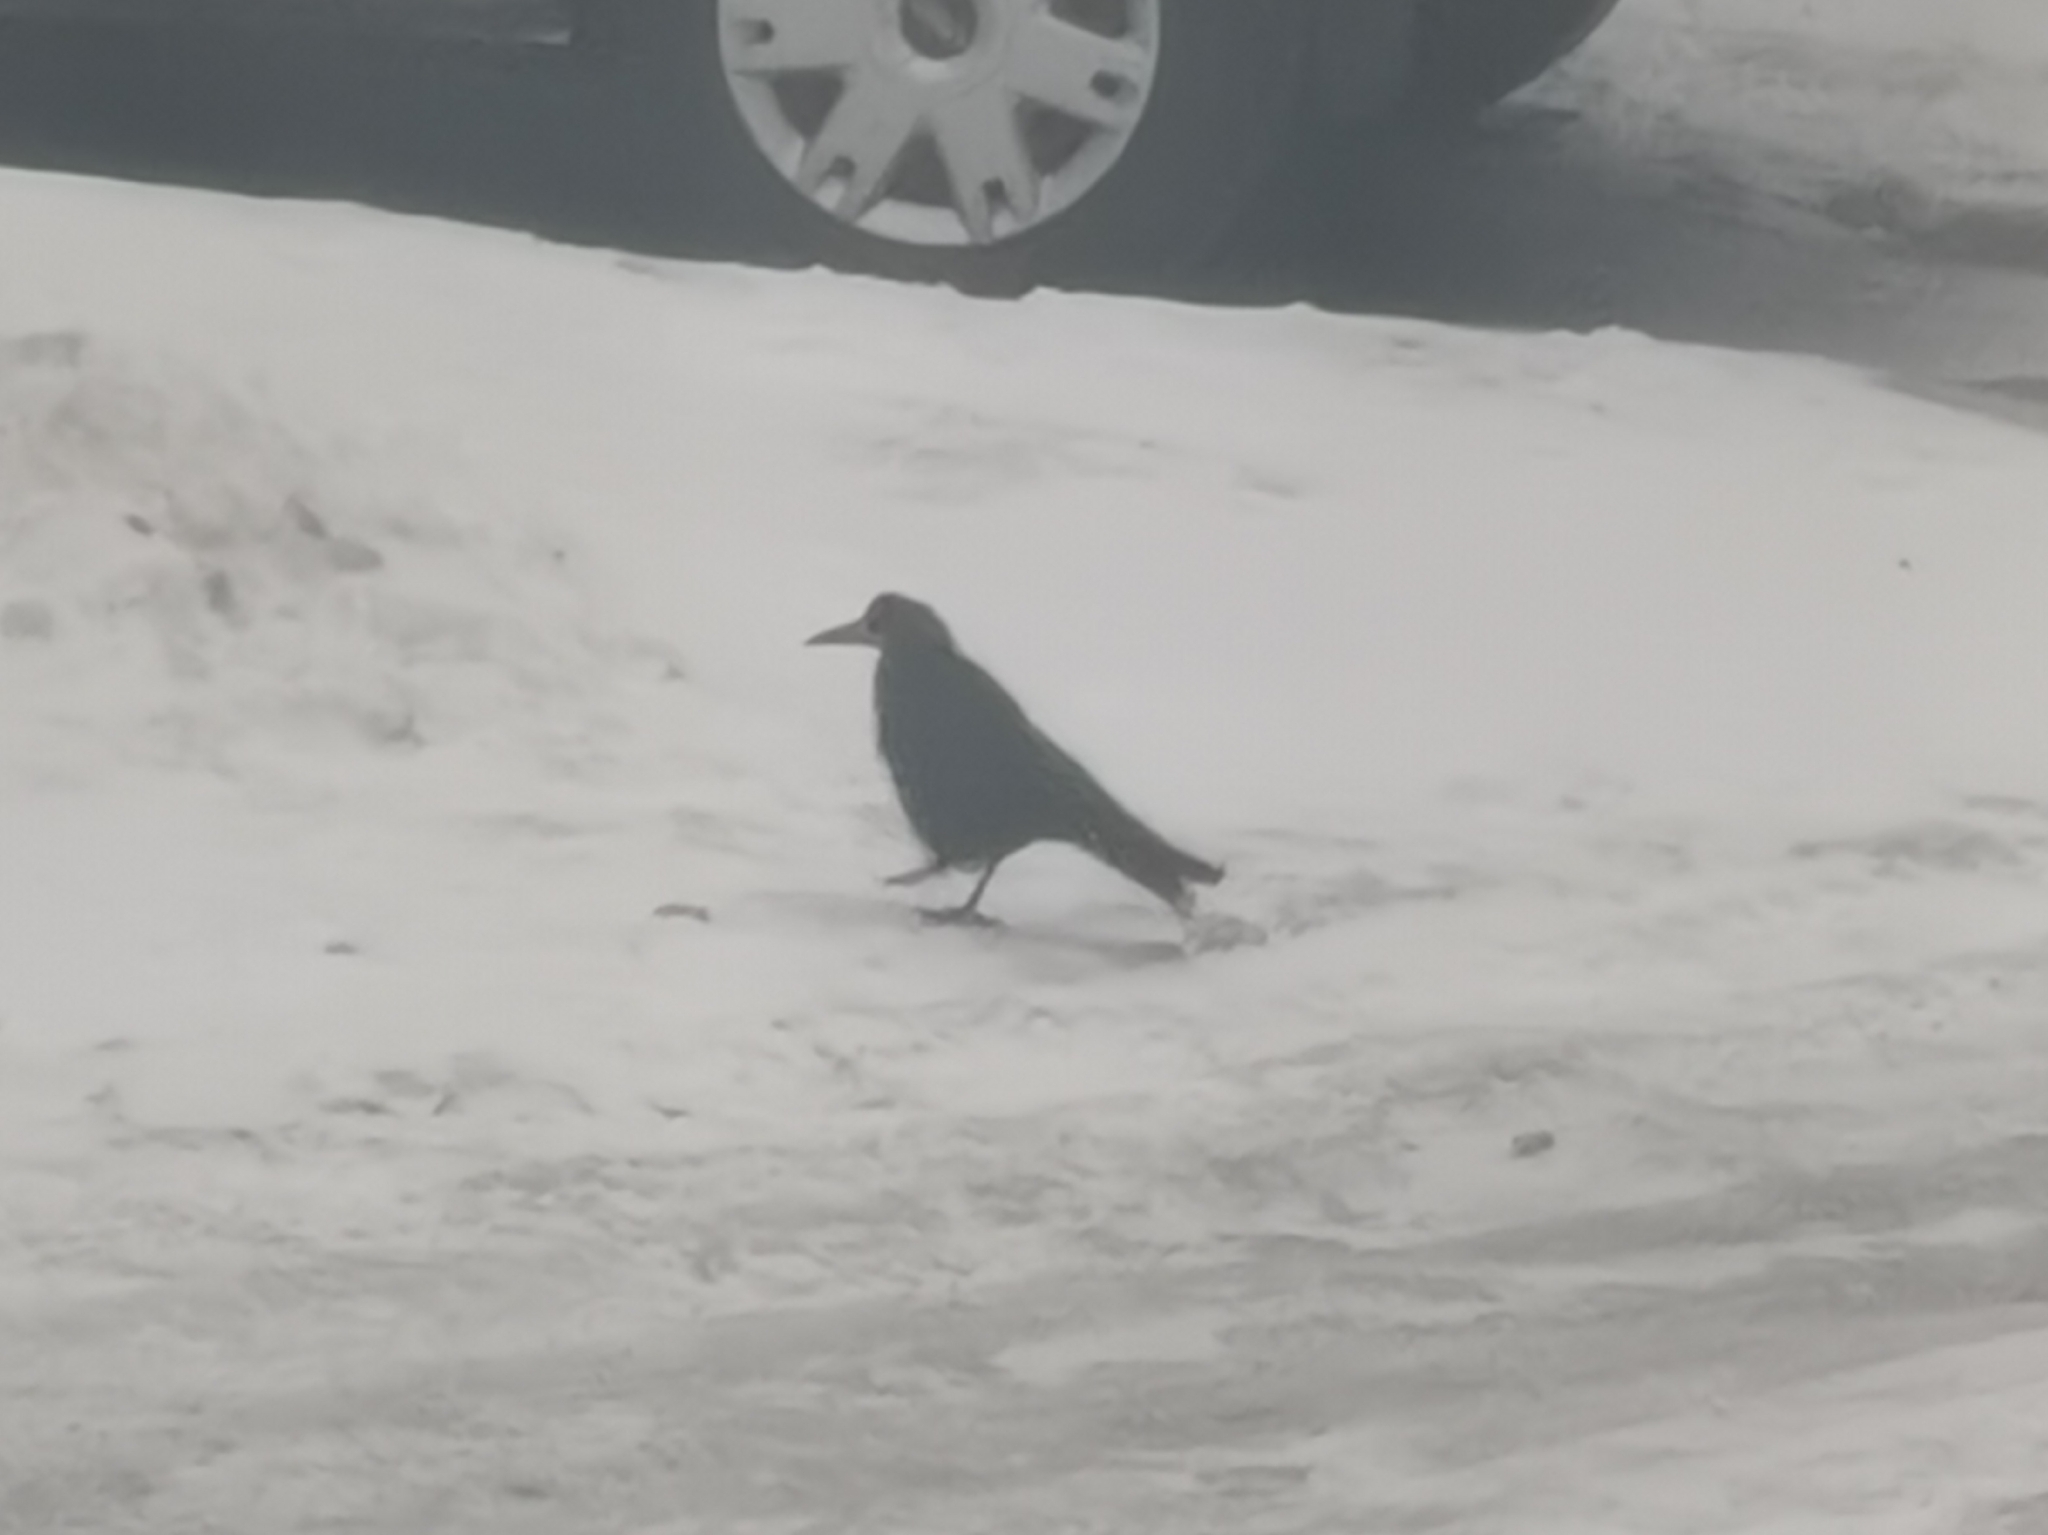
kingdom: Animalia
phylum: Chordata
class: Aves
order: Passeriformes
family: Corvidae
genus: Corvus
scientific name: Corvus frugilegus
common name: Rook
